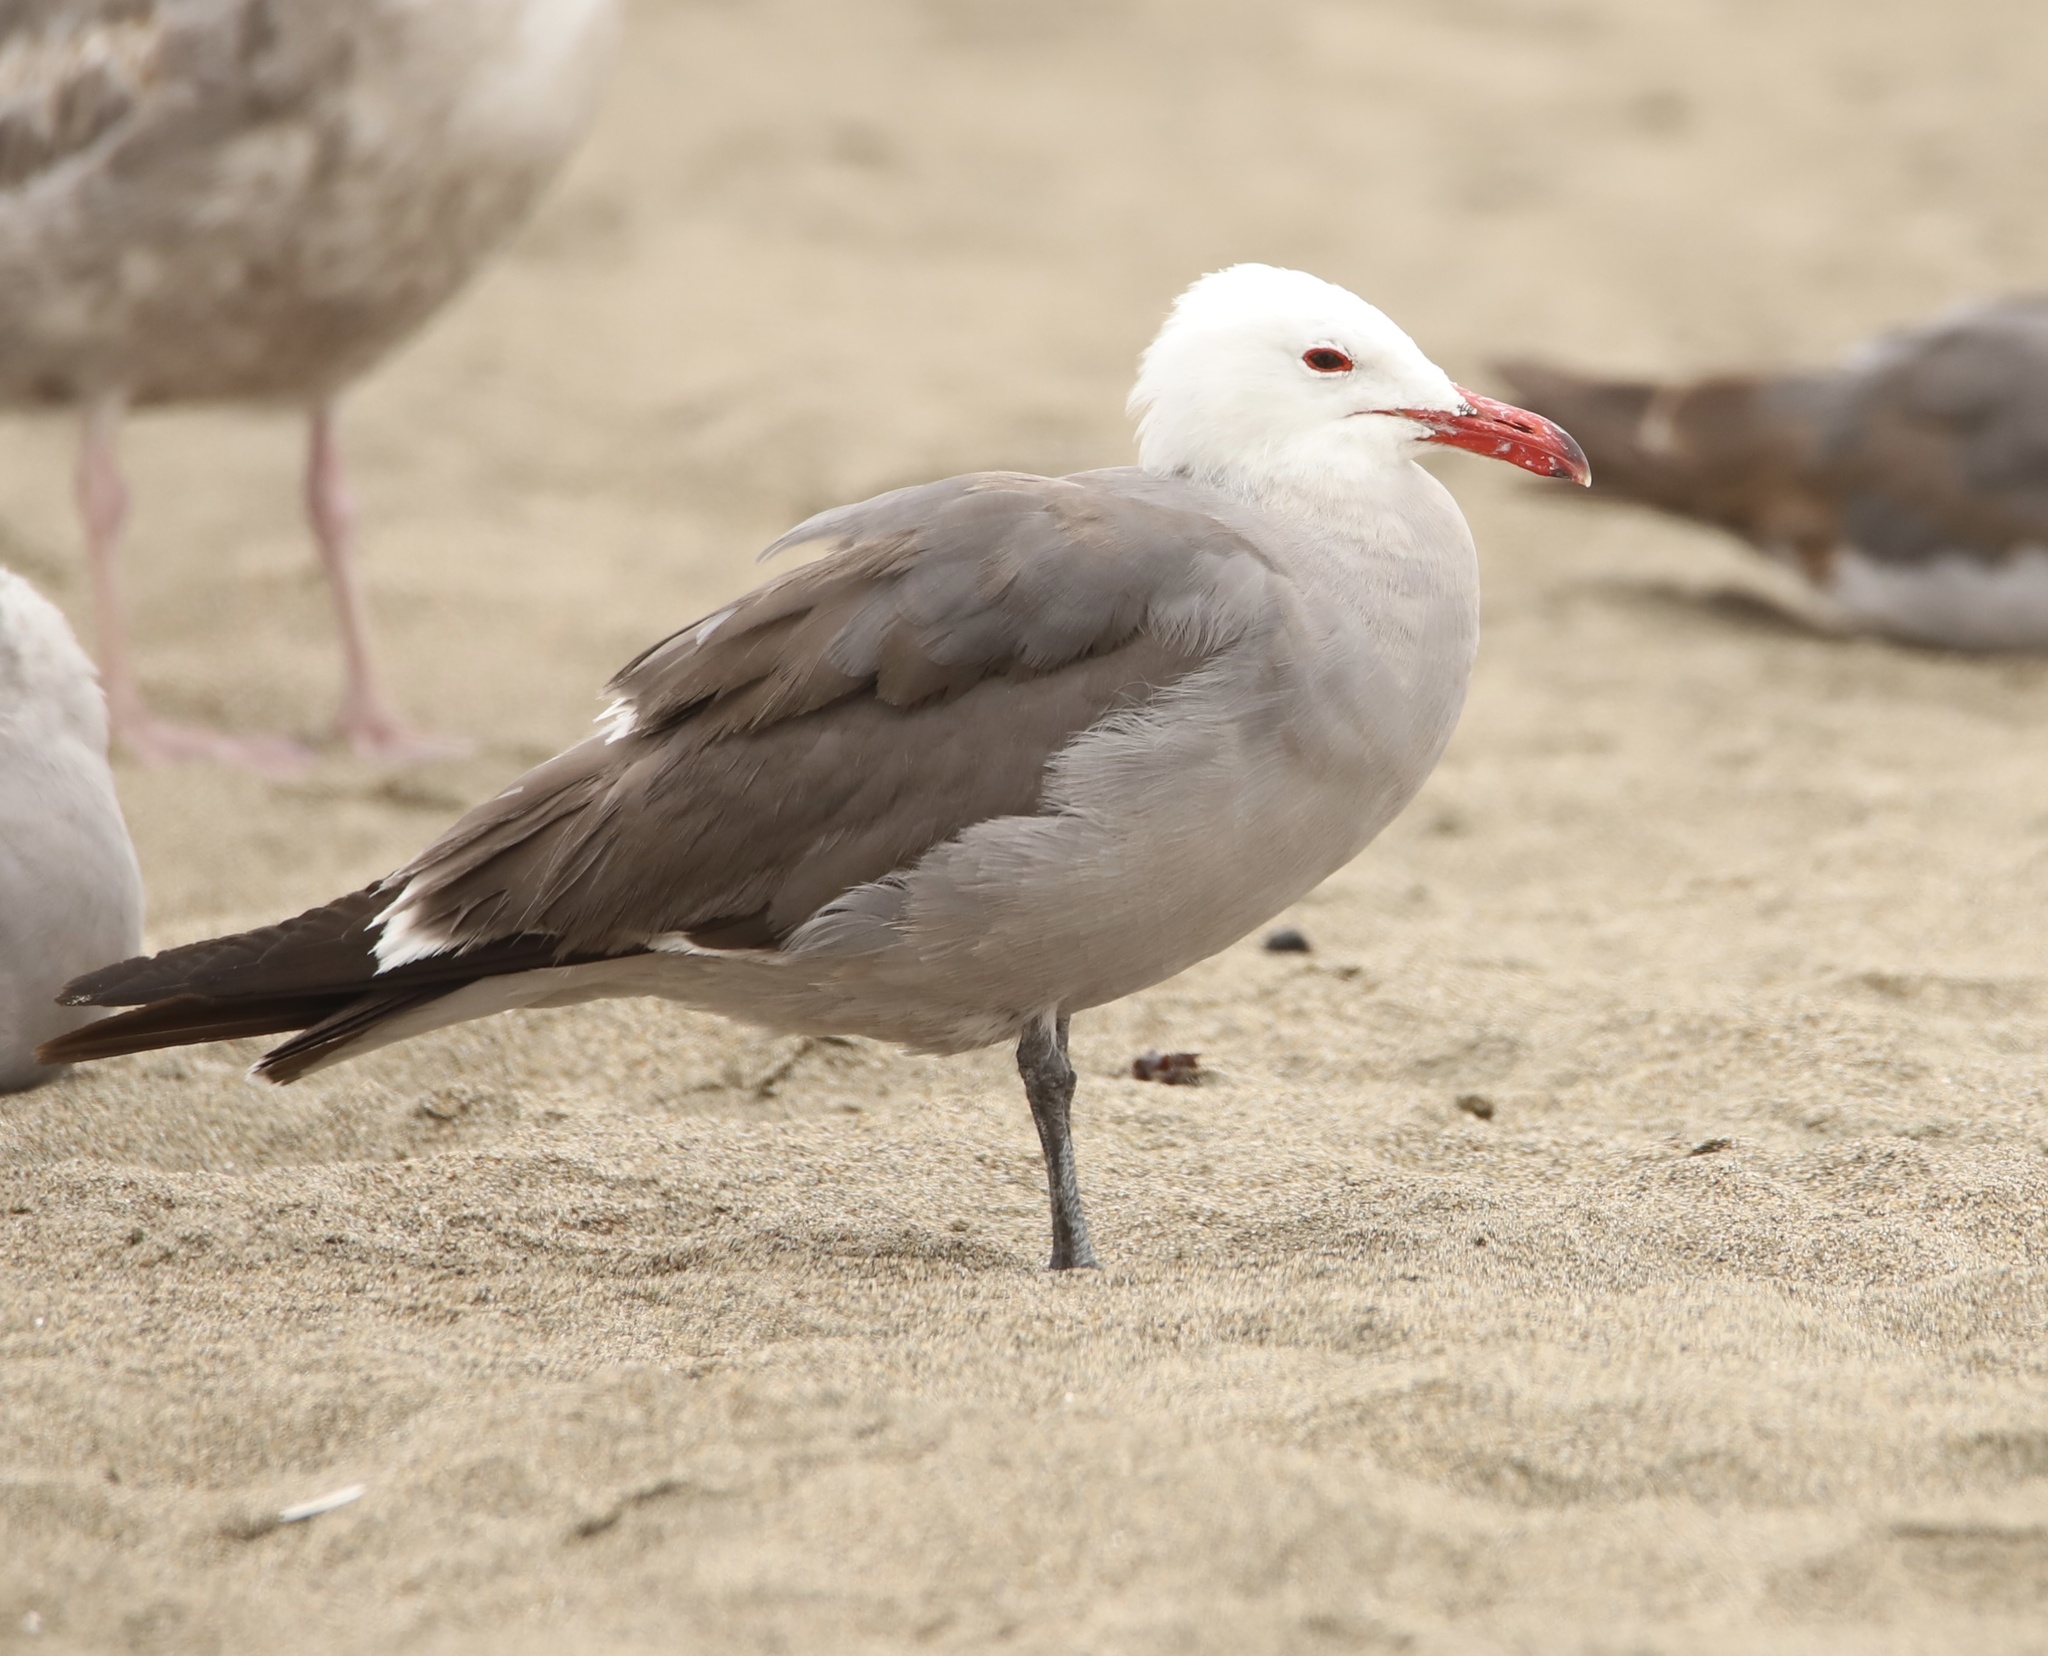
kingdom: Animalia
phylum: Chordata
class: Aves
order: Charadriiformes
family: Laridae
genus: Larus
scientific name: Larus heermanni
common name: Heermann's gull
